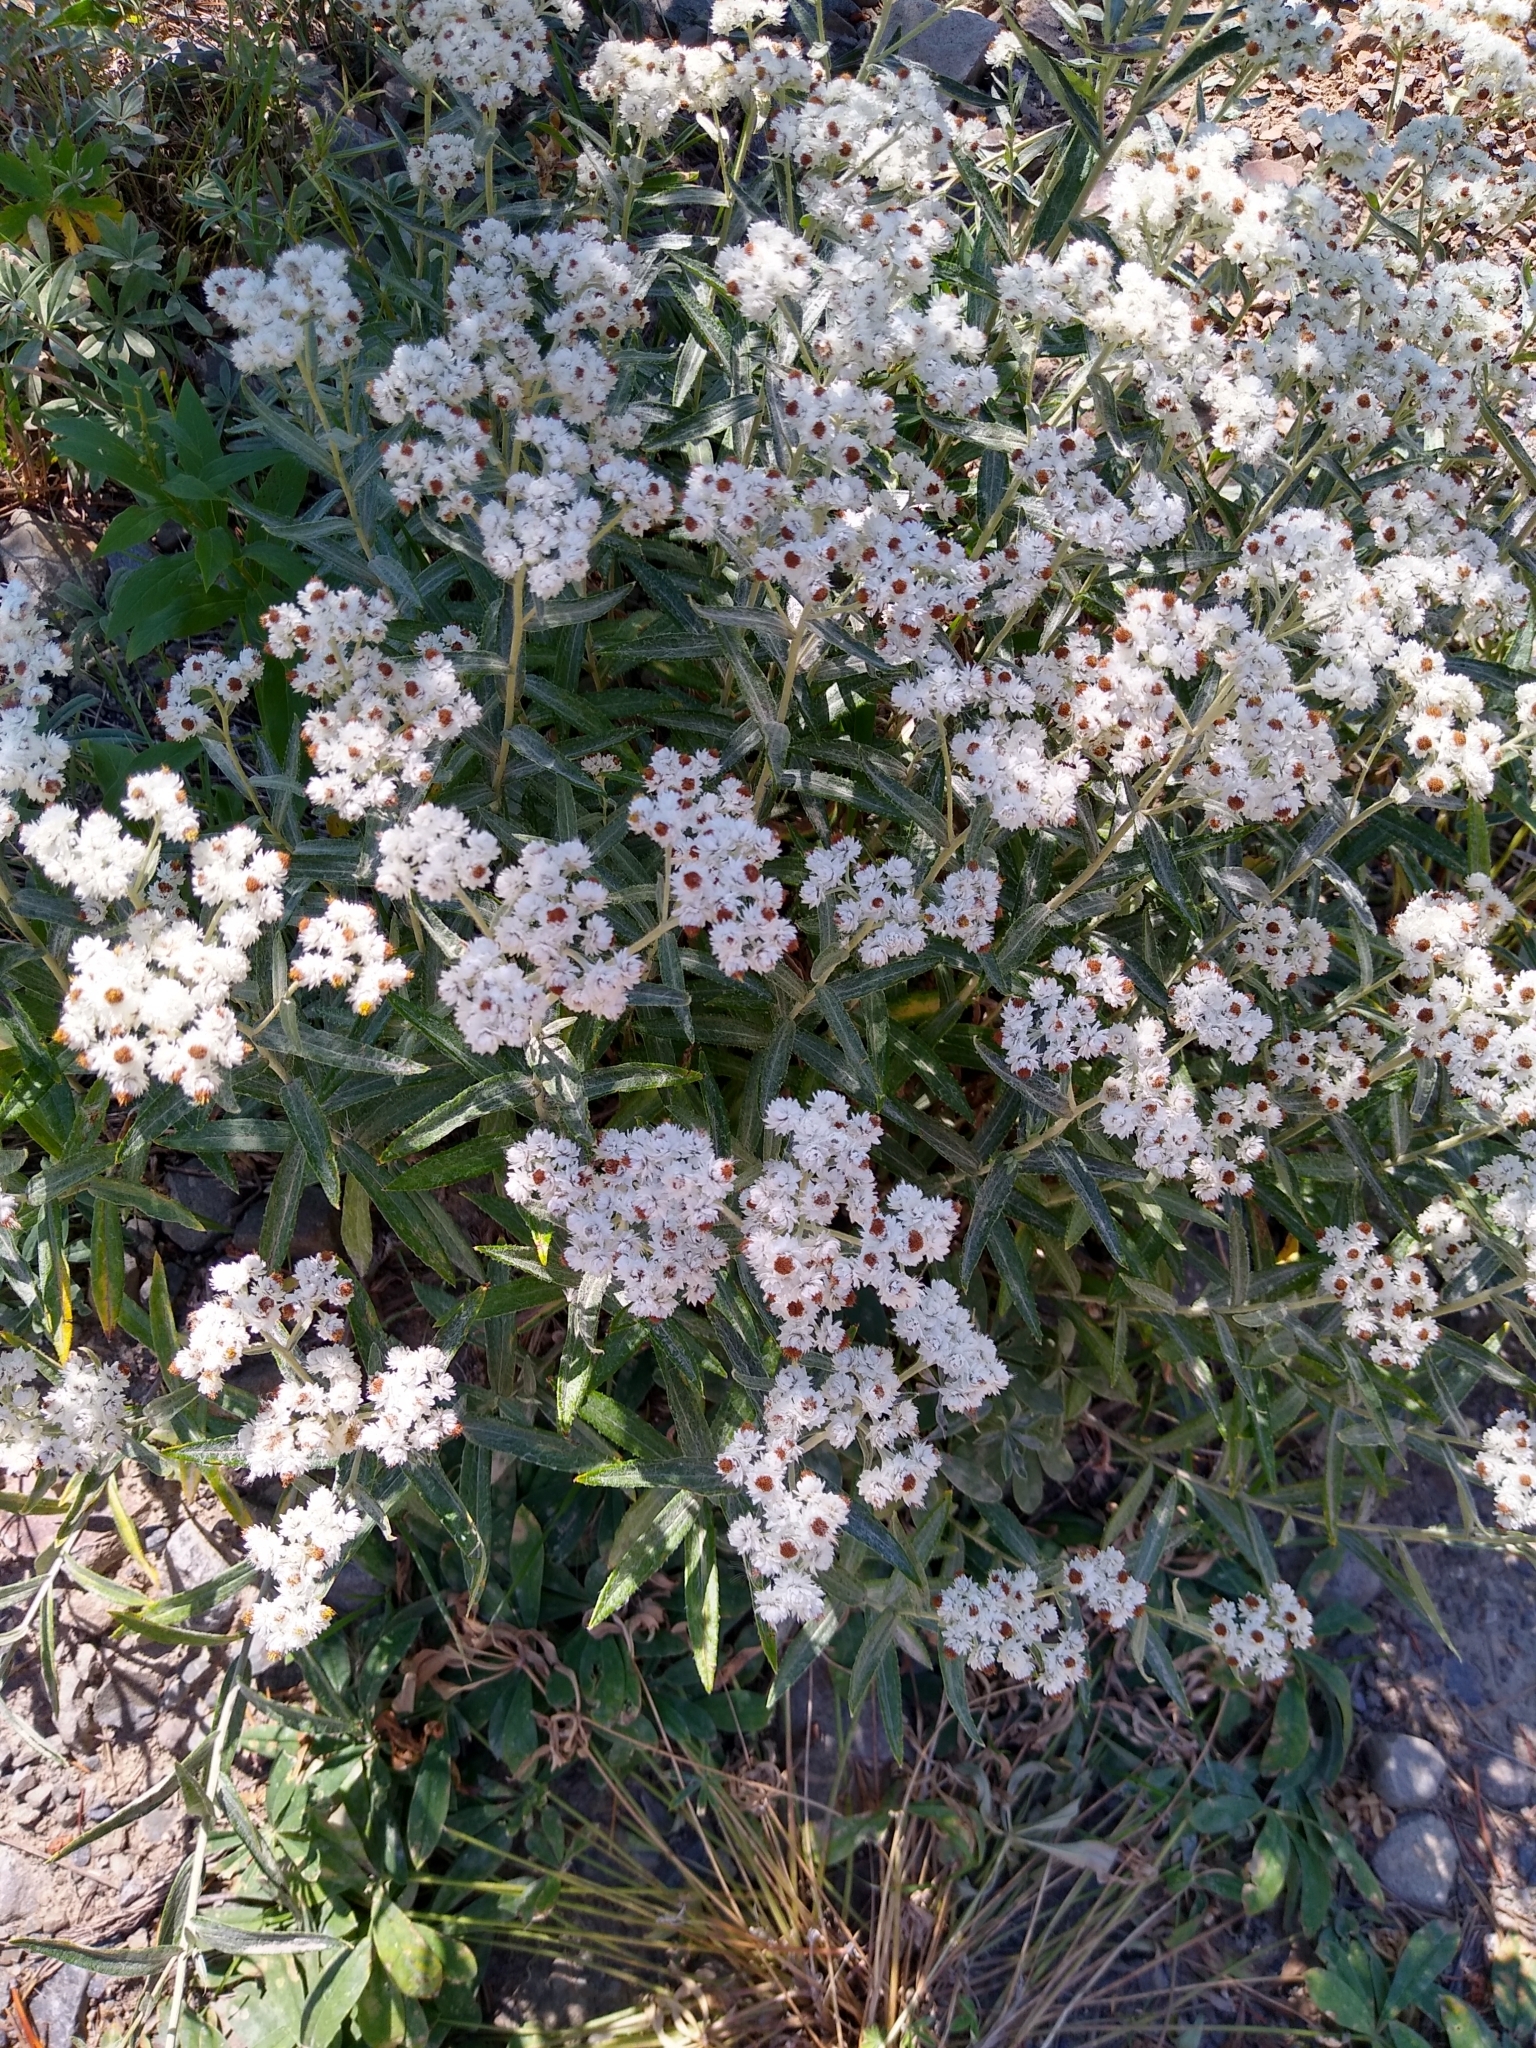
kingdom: Plantae
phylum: Tracheophyta
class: Magnoliopsida
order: Asterales
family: Asteraceae
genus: Anaphalis
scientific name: Anaphalis margaritacea
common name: Pearly everlasting
